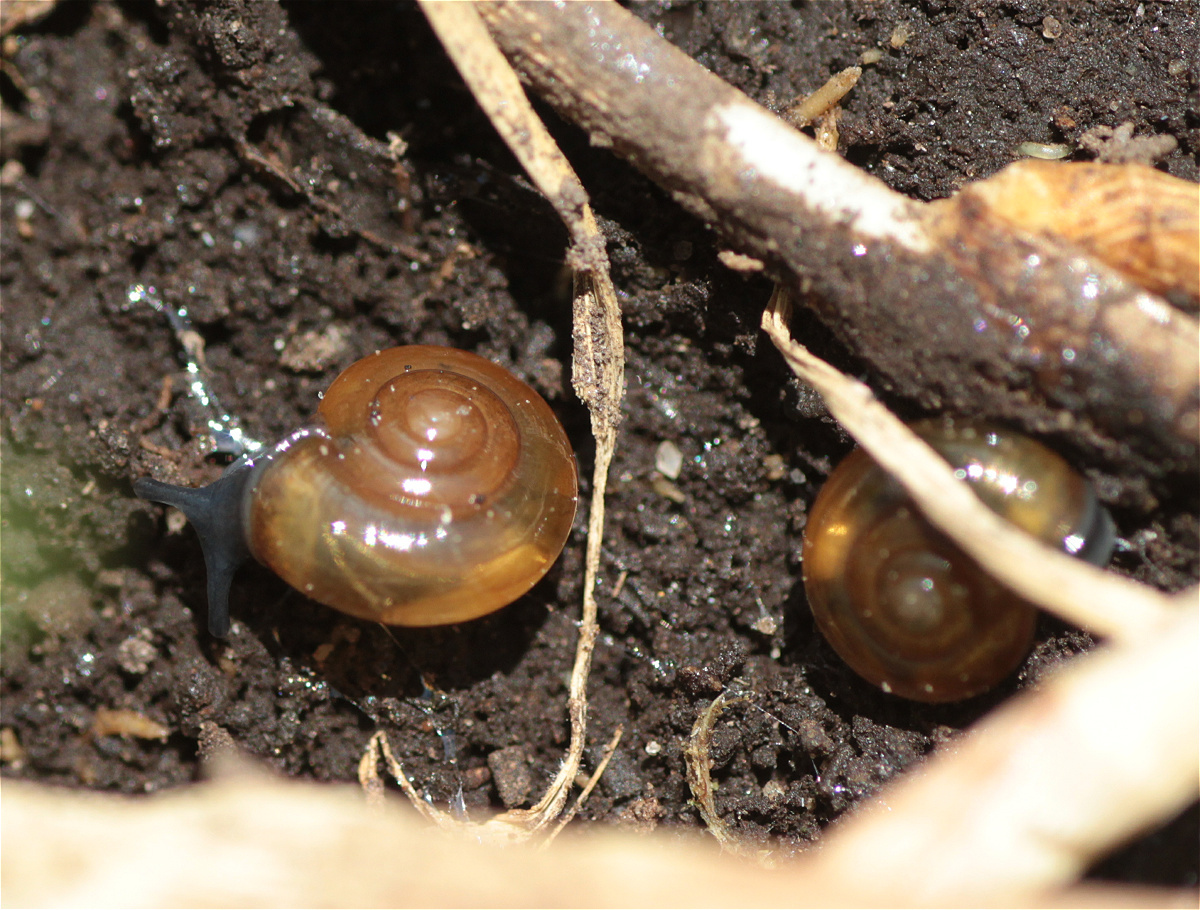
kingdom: Animalia
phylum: Mollusca
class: Gastropoda
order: Stylommatophora
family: Oxychilidae
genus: Oxychilus
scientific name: Oxychilus alliarius
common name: Garlic glass-snail
